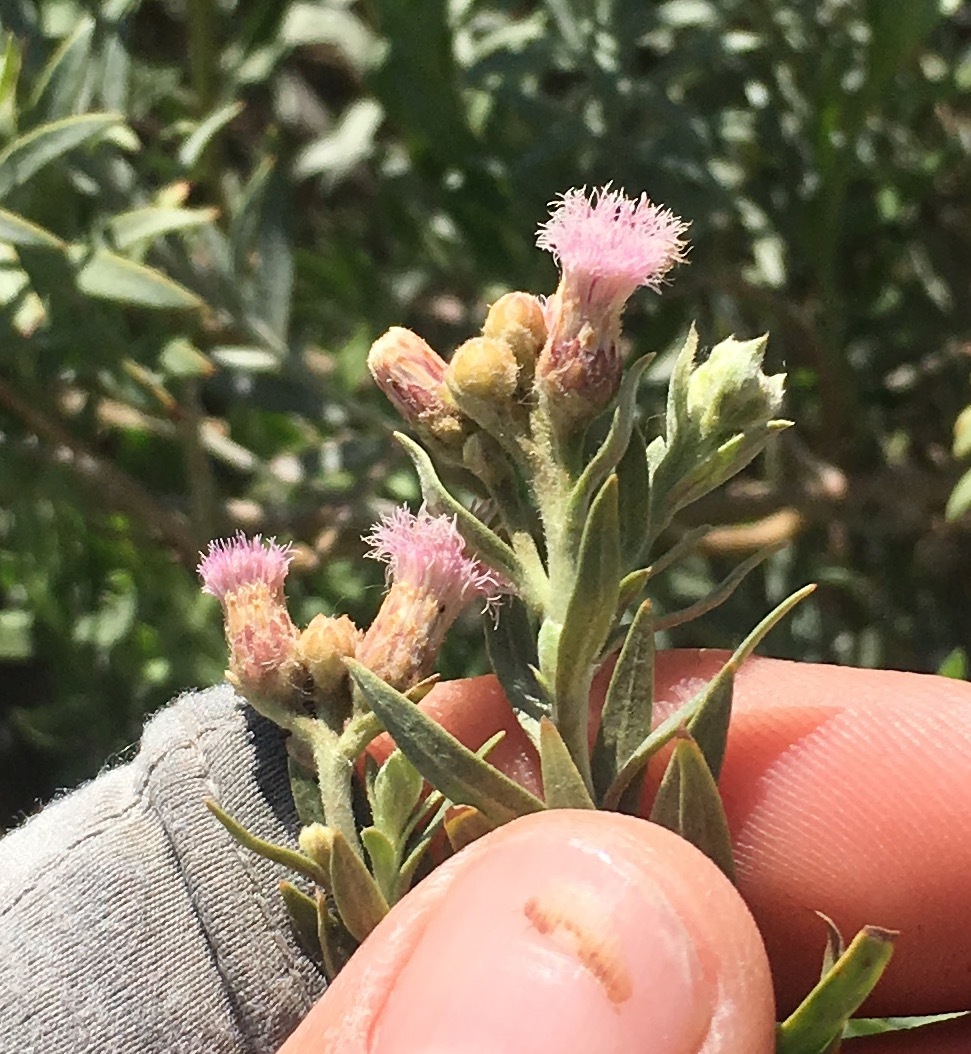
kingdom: Plantae
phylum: Tracheophyta
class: Magnoliopsida
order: Asterales
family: Asteraceae
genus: Pluchea
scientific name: Pluchea sericea
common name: Arrow-weed
